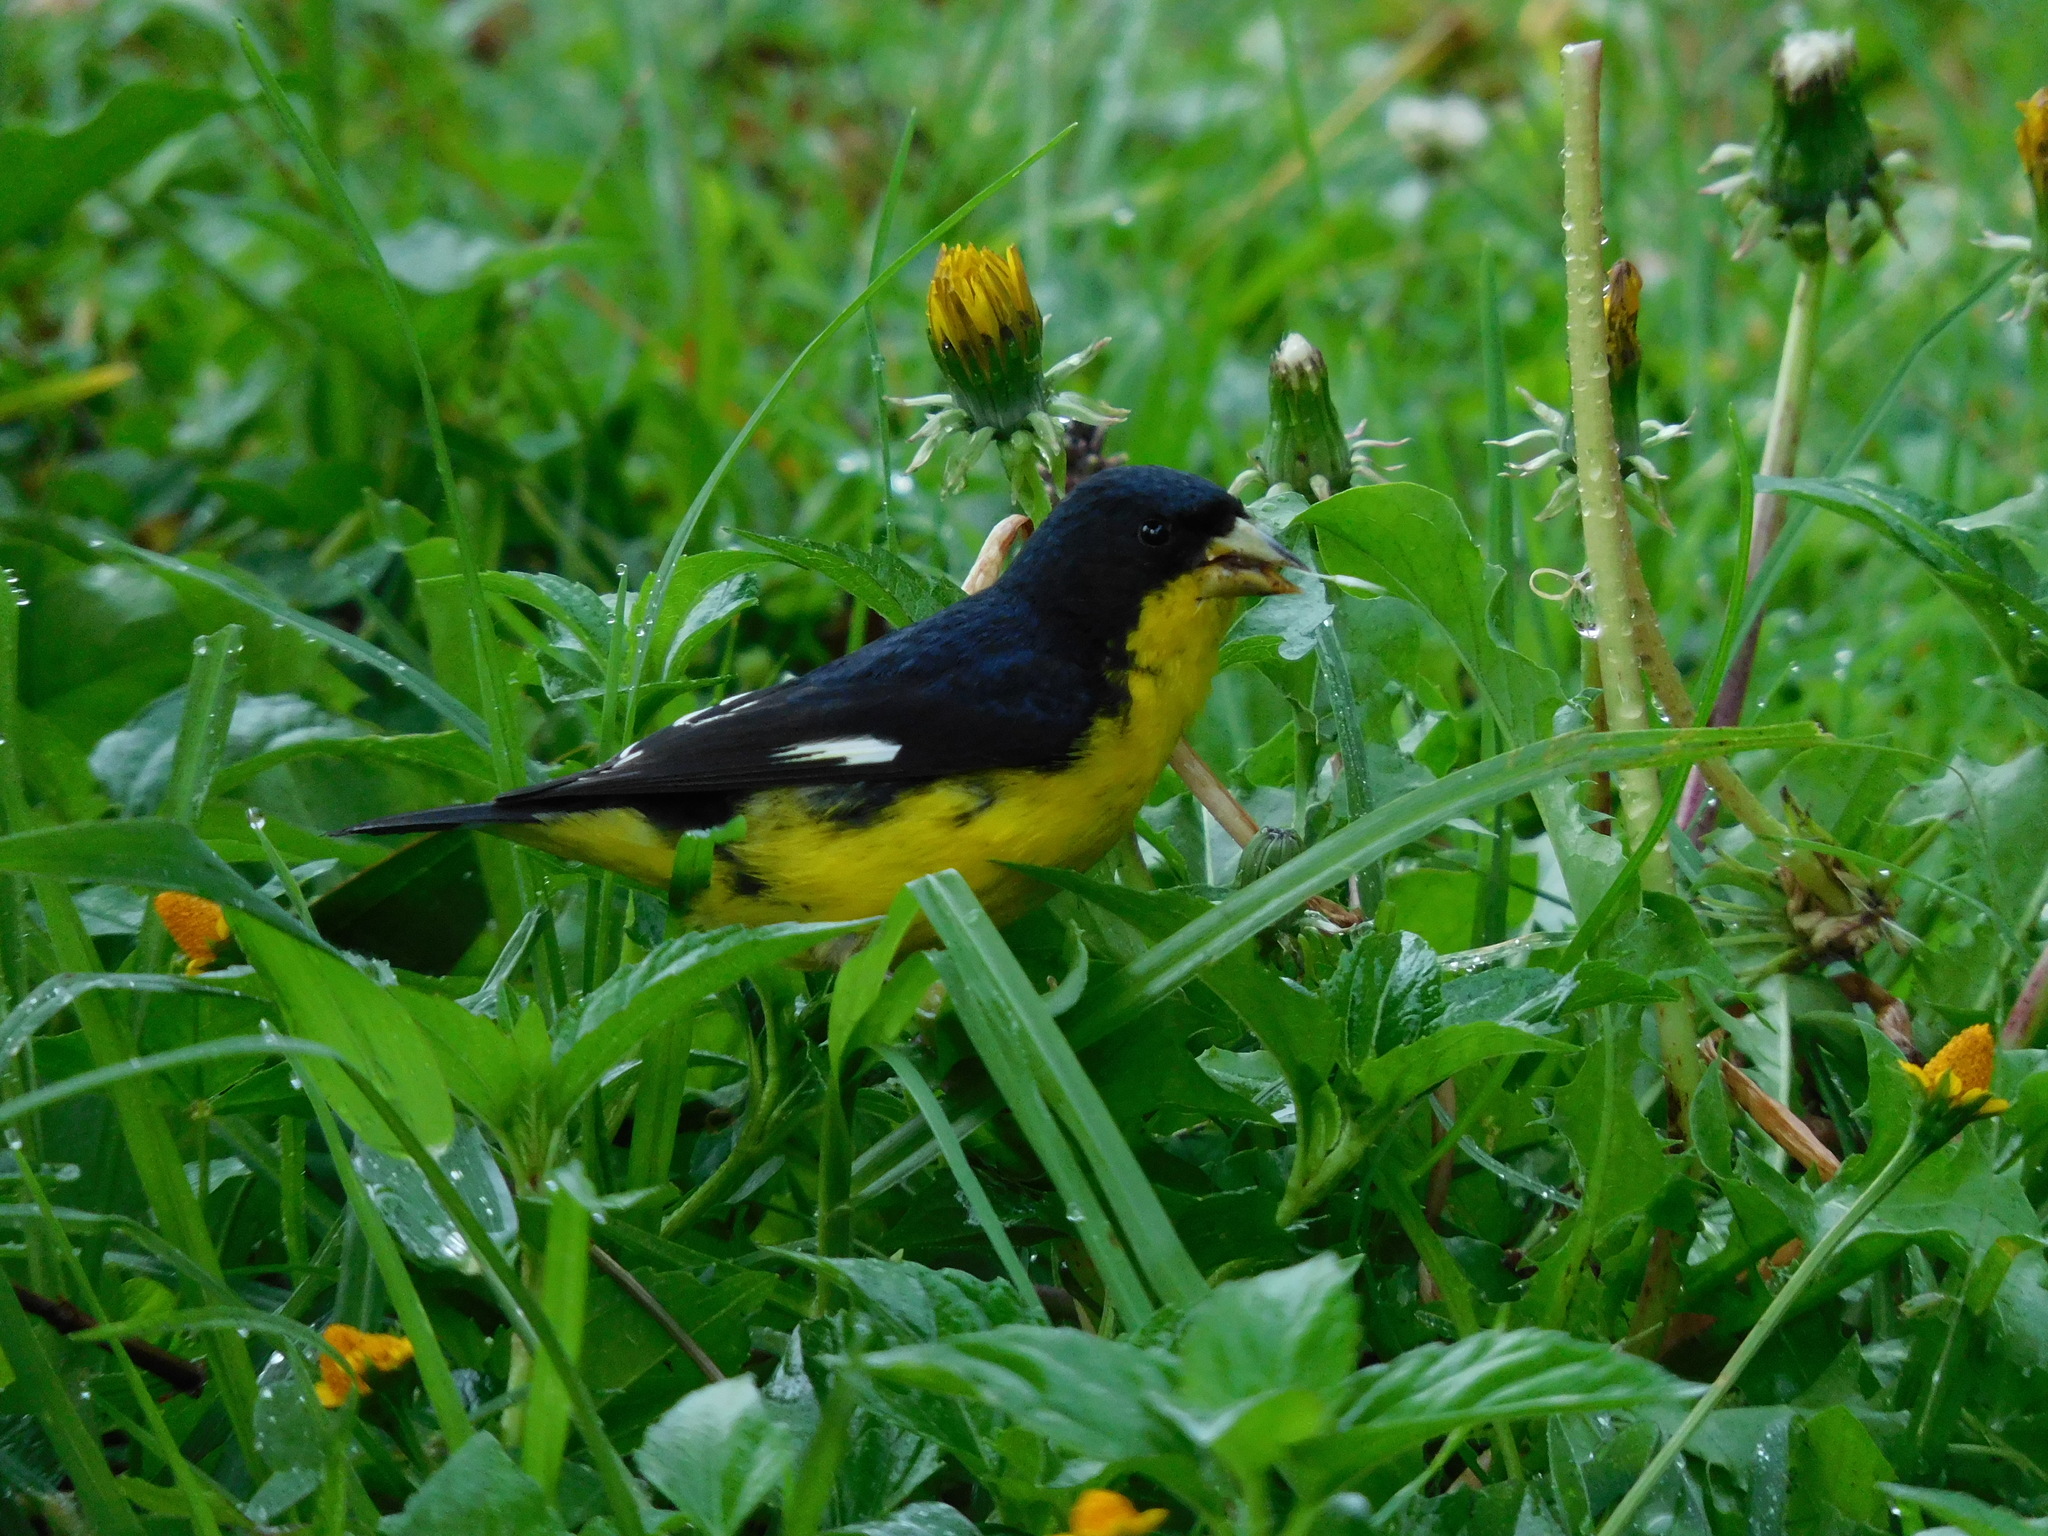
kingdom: Animalia
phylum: Chordata
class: Aves
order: Passeriformes
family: Fringillidae
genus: Spinus
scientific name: Spinus psaltria
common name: Lesser goldfinch
